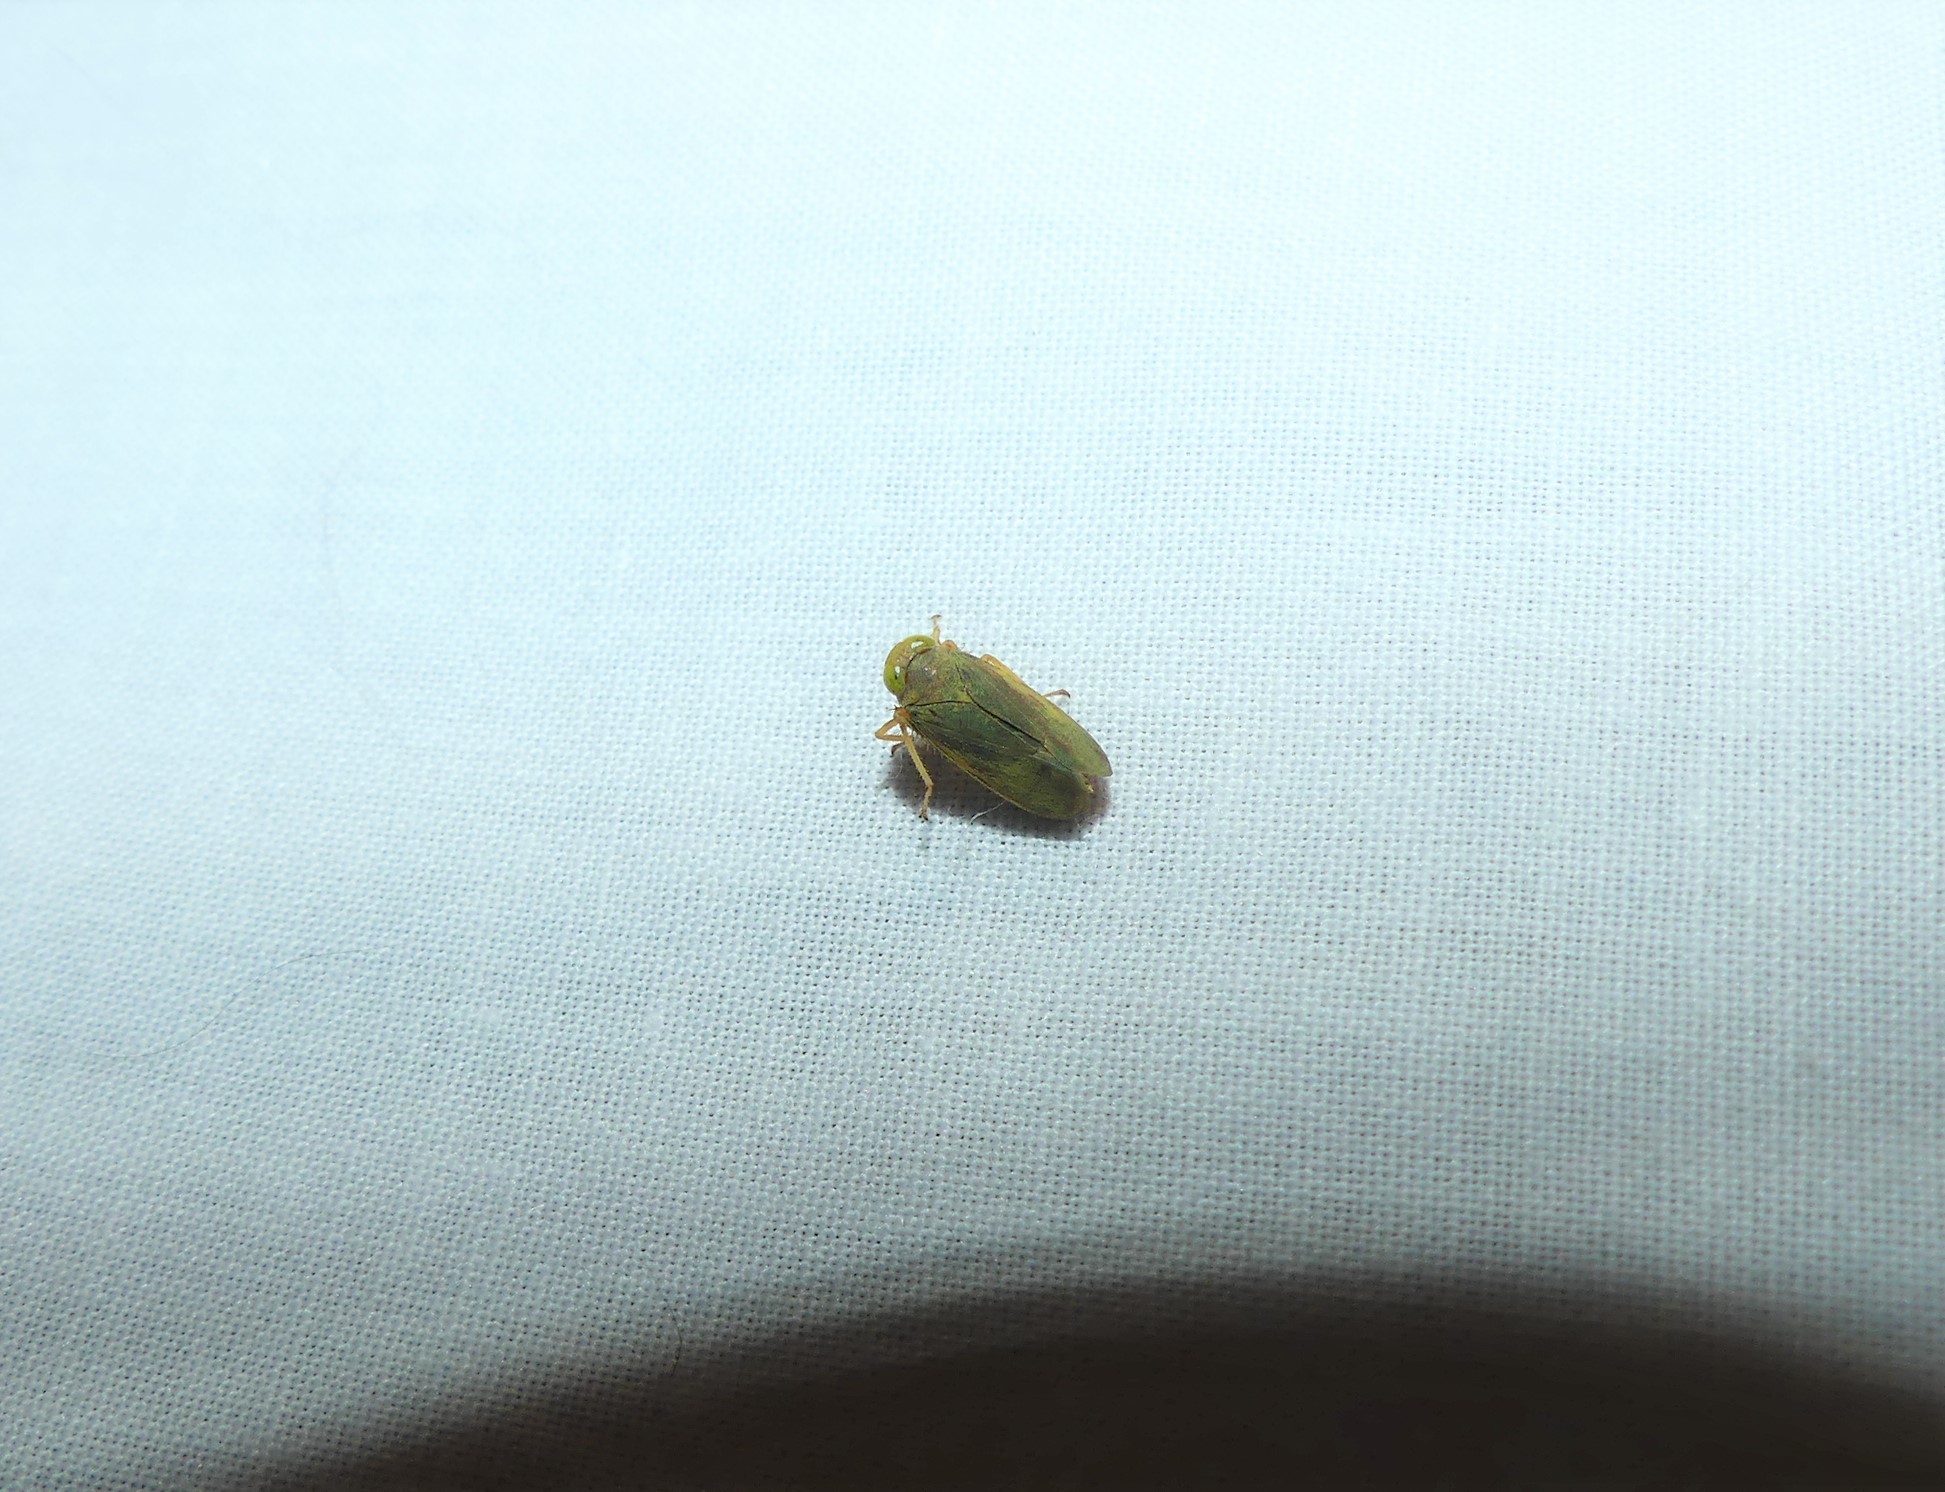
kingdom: Animalia
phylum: Arthropoda
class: Insecta
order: Hemiptera
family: Cicadellidae
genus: Jikradia
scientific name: Jikradia olitoria
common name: Coppery leafhopper
